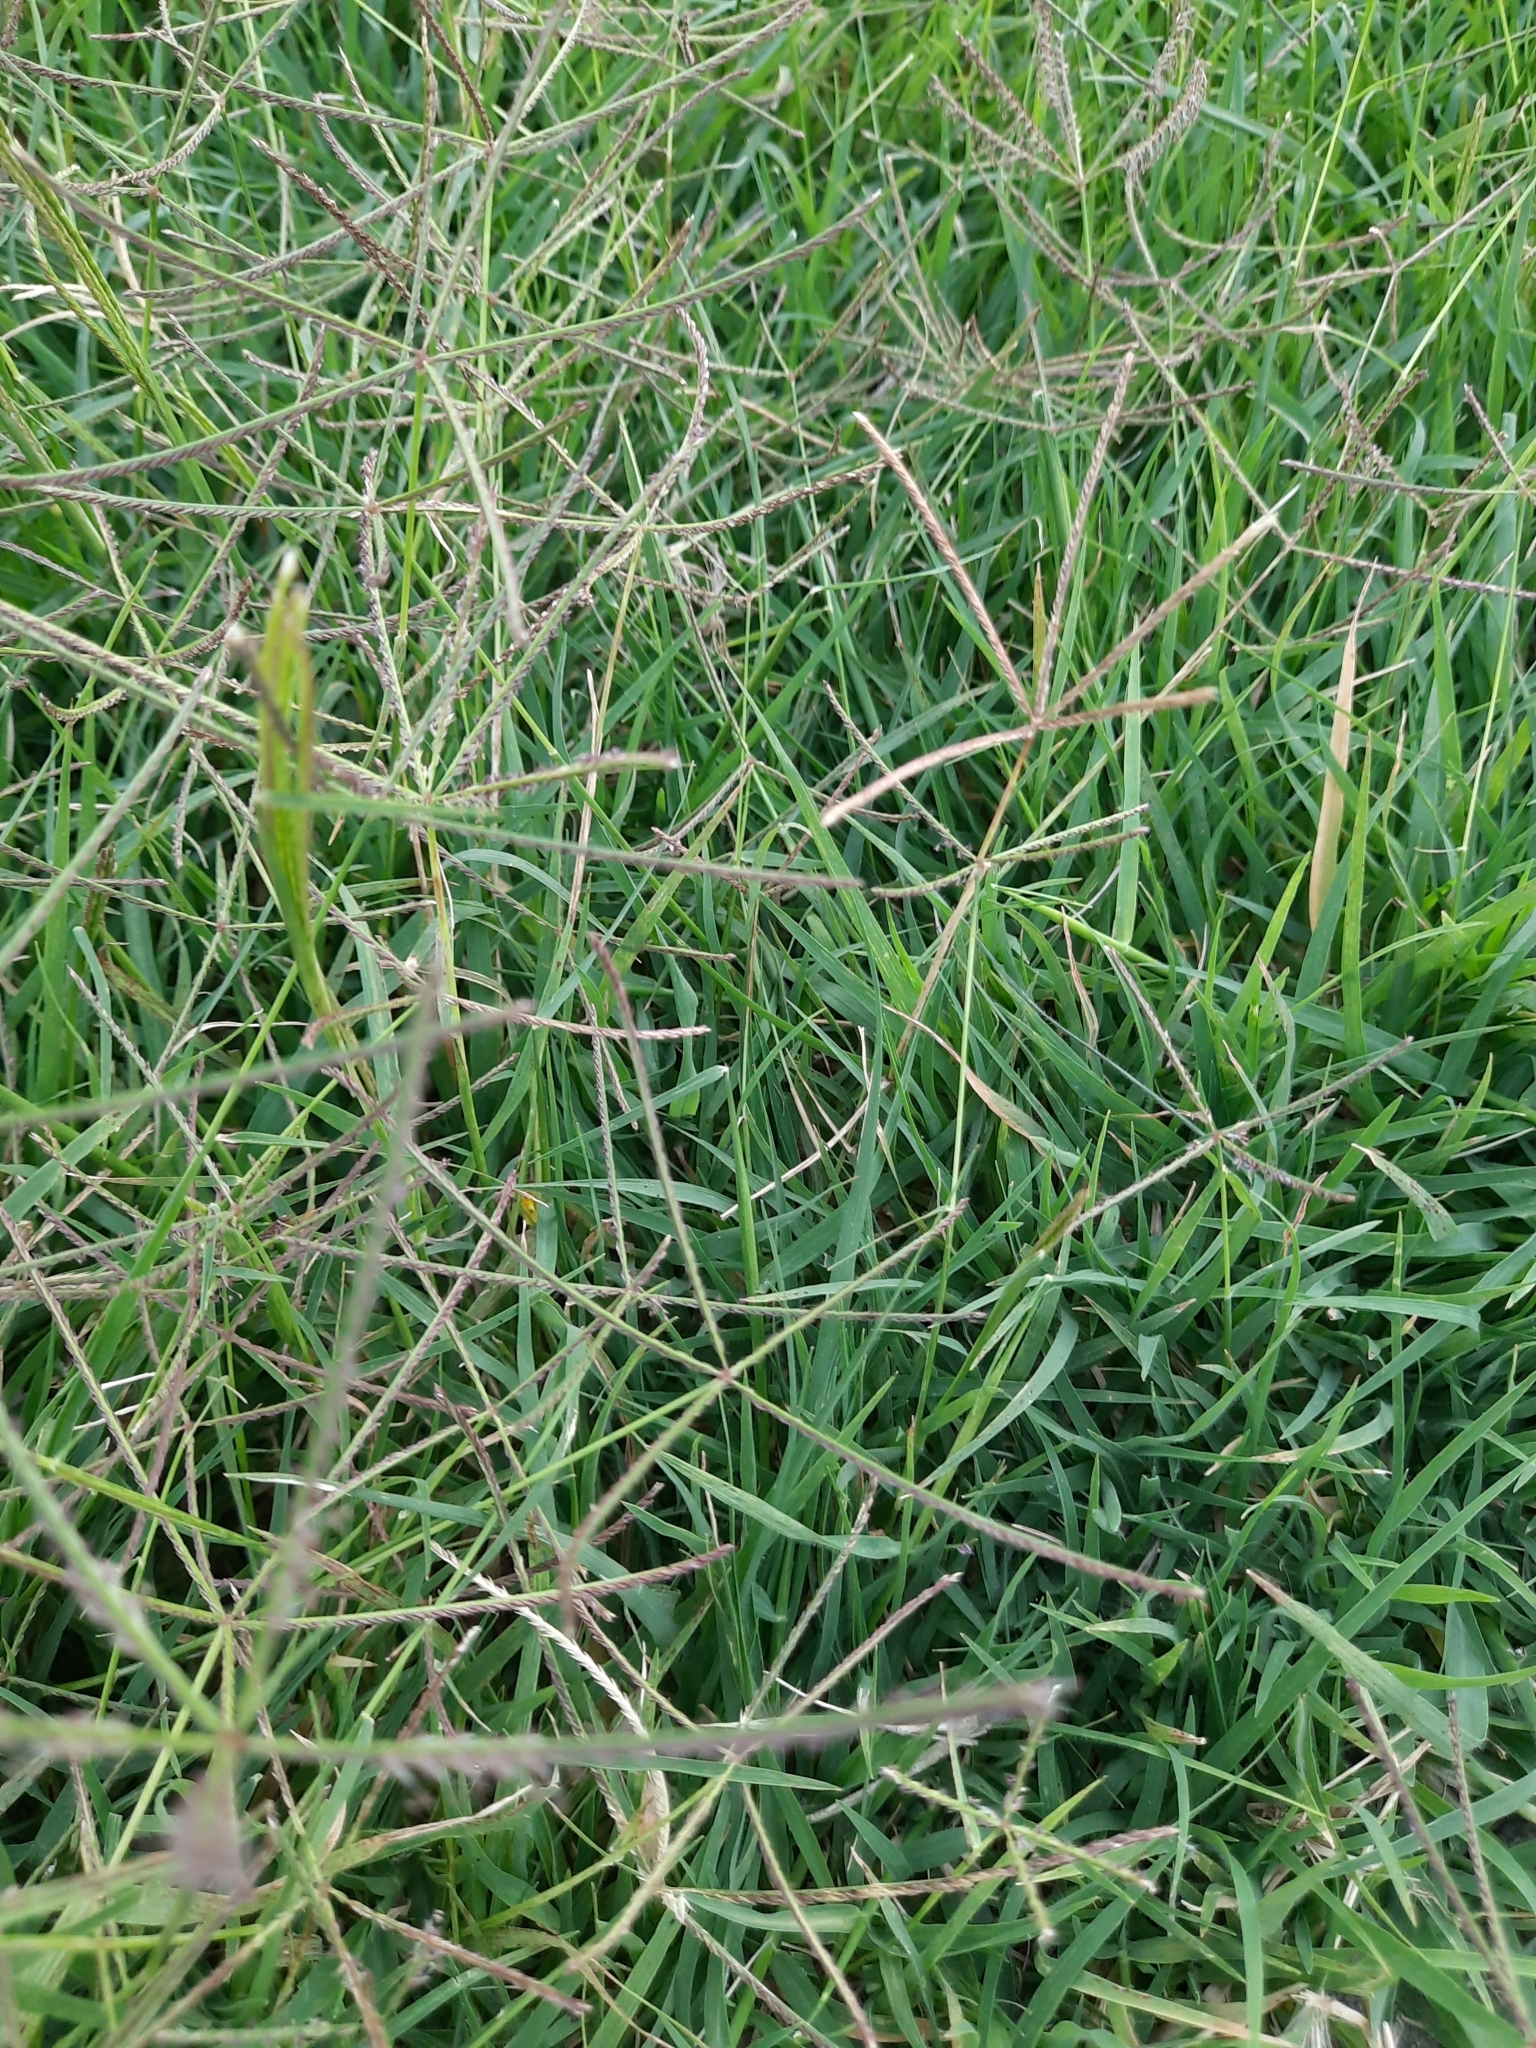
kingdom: Plantae
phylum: Tracheophyta
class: Liliopsida
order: Poales
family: Poaceae
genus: Cynodon
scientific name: Cynodon dactylon
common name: Bermuda grass
